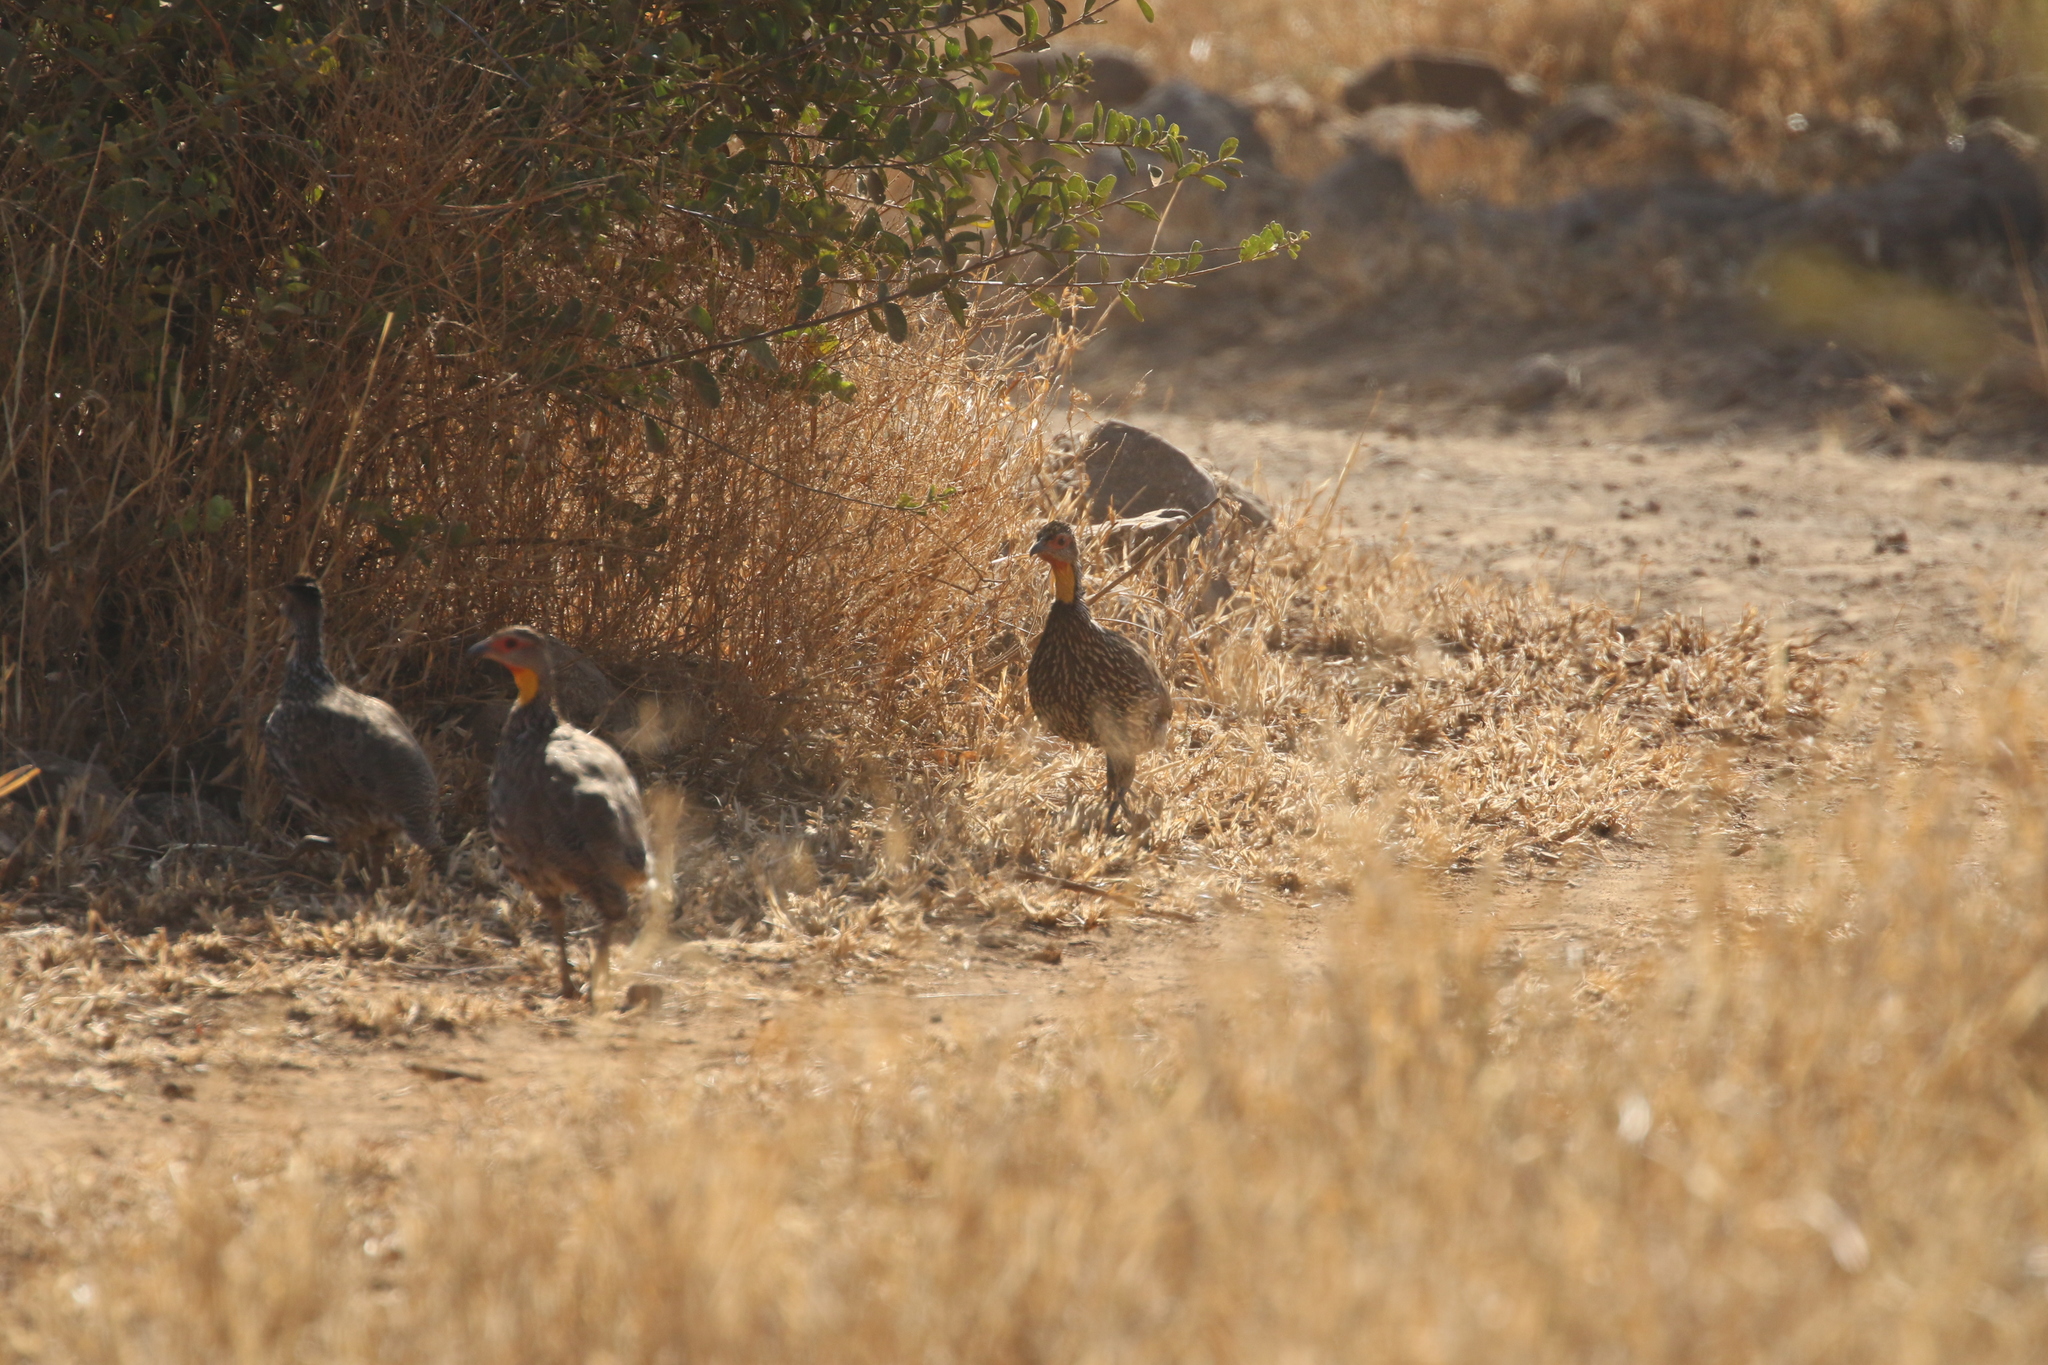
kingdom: Animalia
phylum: Chordata
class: Aves
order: Galliformes
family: Phasianidae
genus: Pternistis
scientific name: Pternistis leucoscepus
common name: Yellow-necked spurfowl
